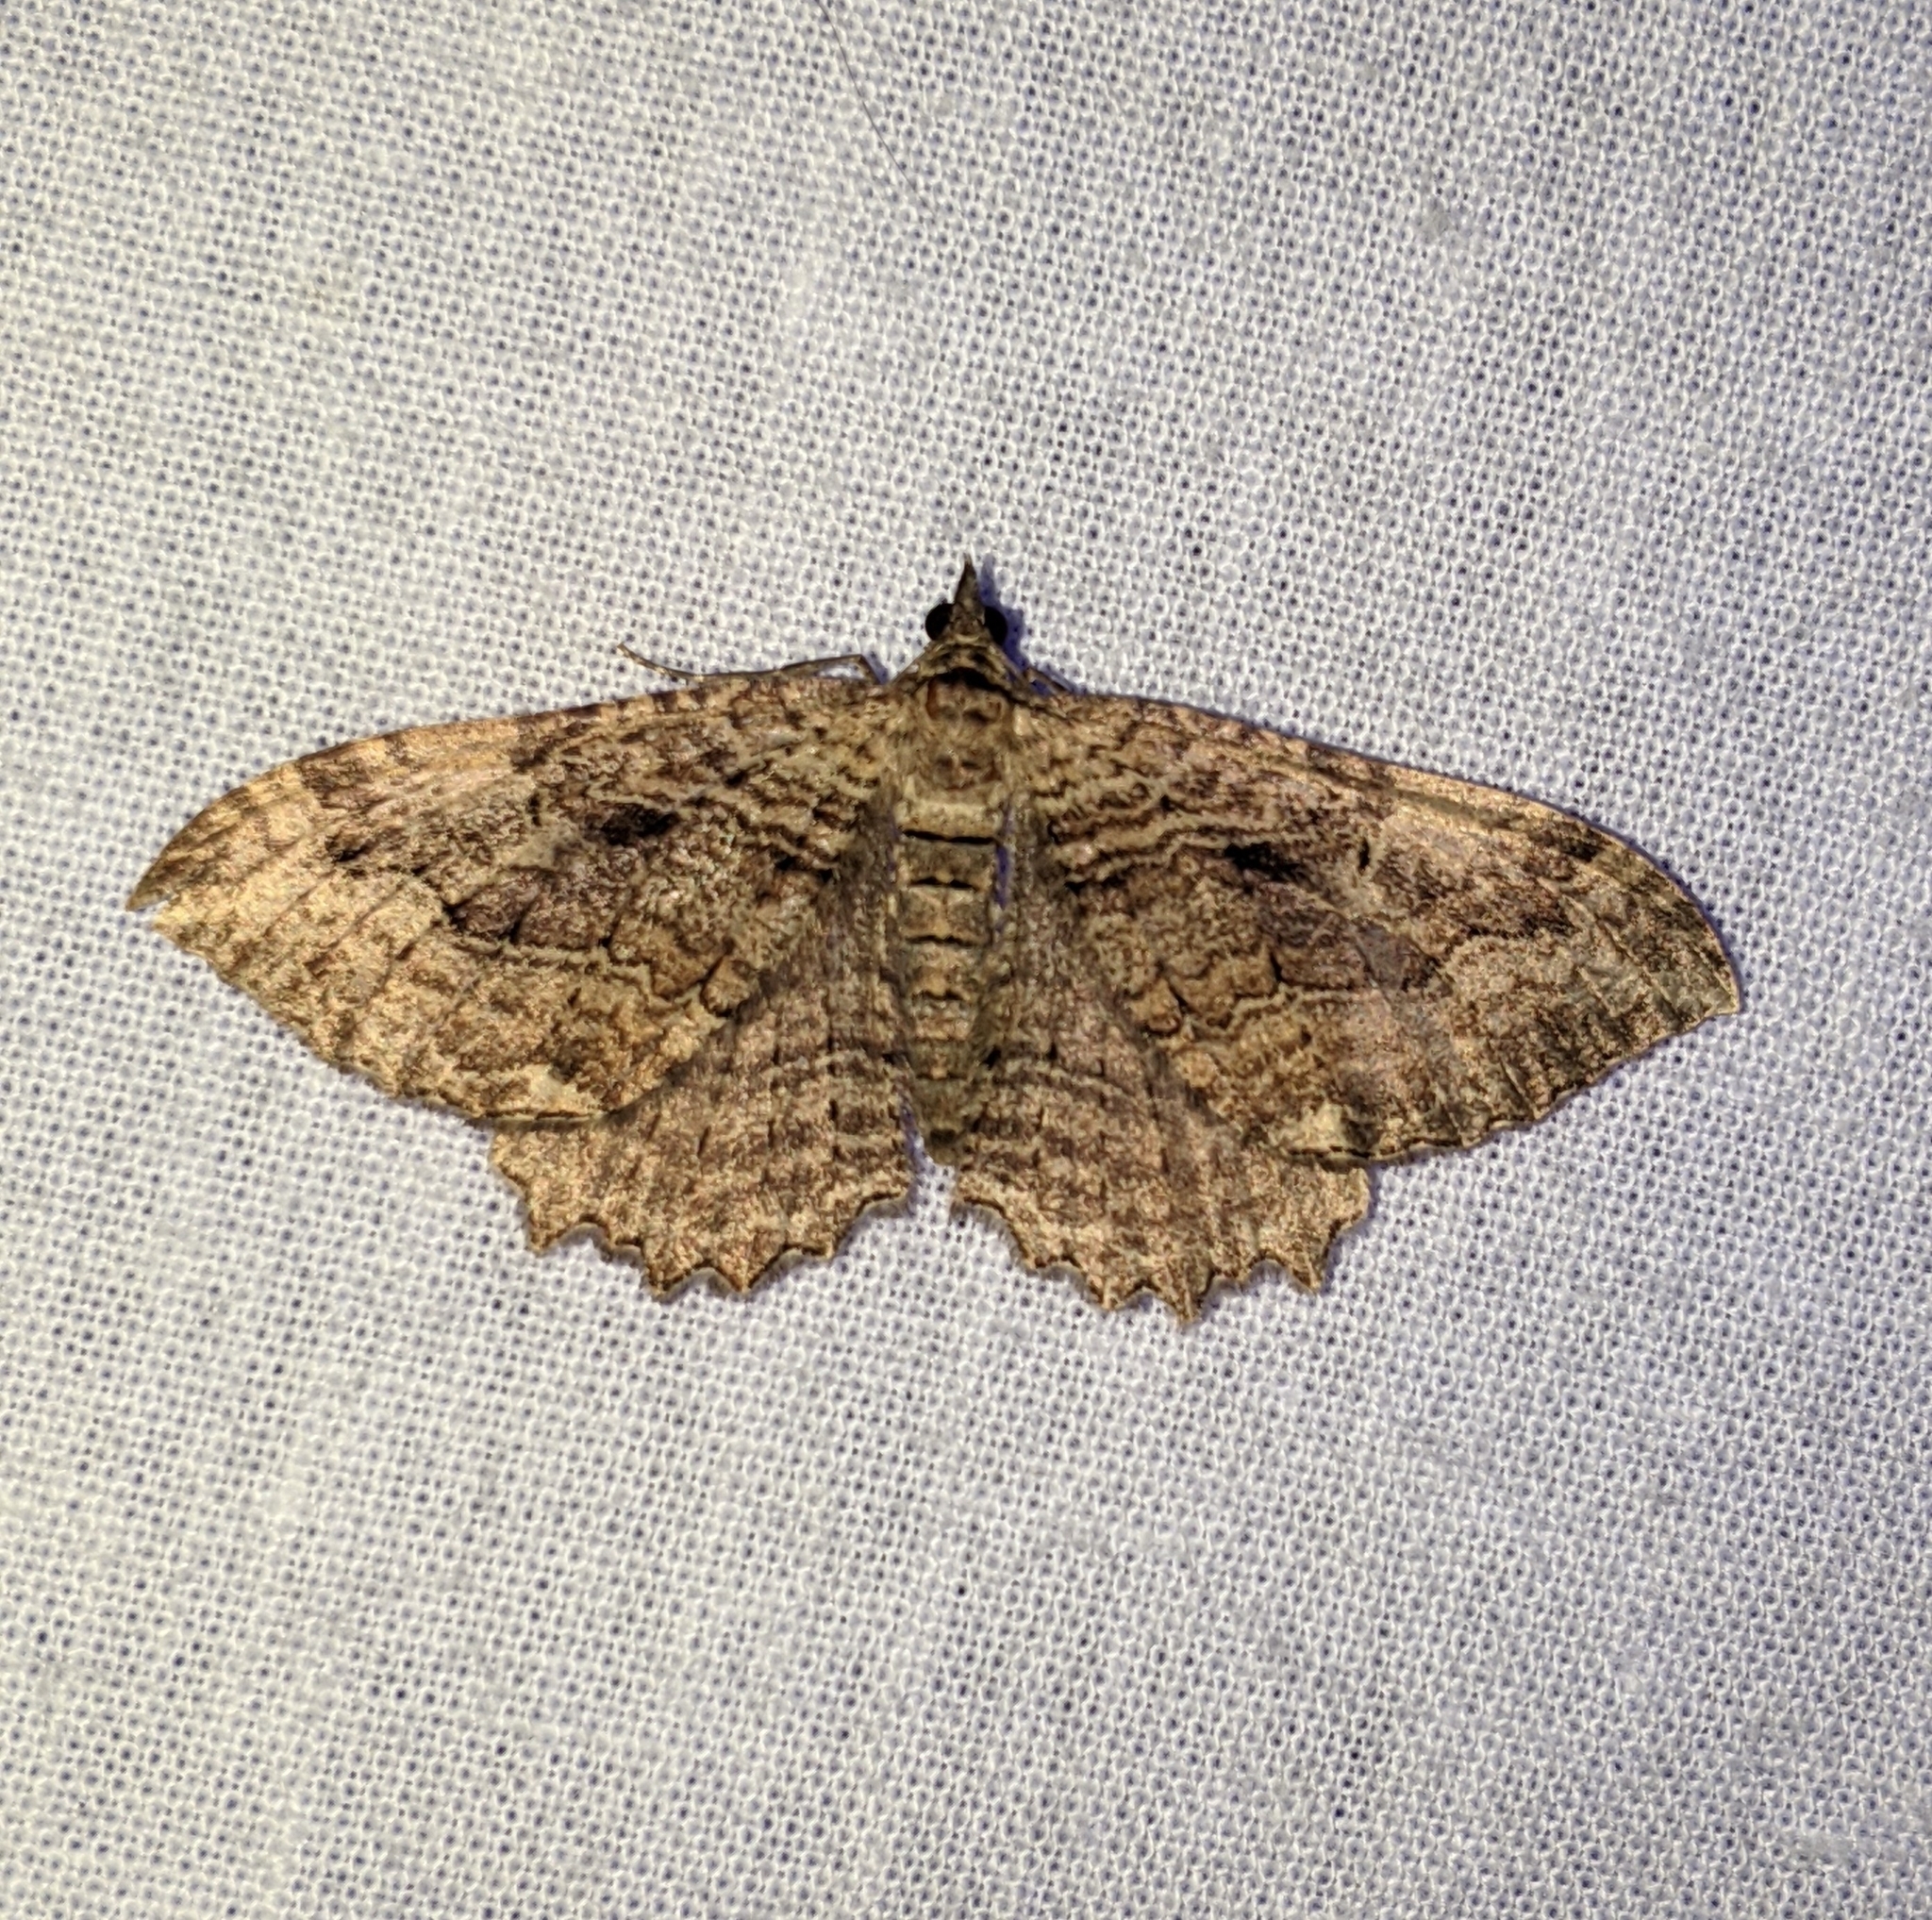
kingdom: Animalia
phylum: Arthropoda
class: Insecta
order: Lepidoptera
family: Geometridae
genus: Rheumaptera
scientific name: Rheumaptera
